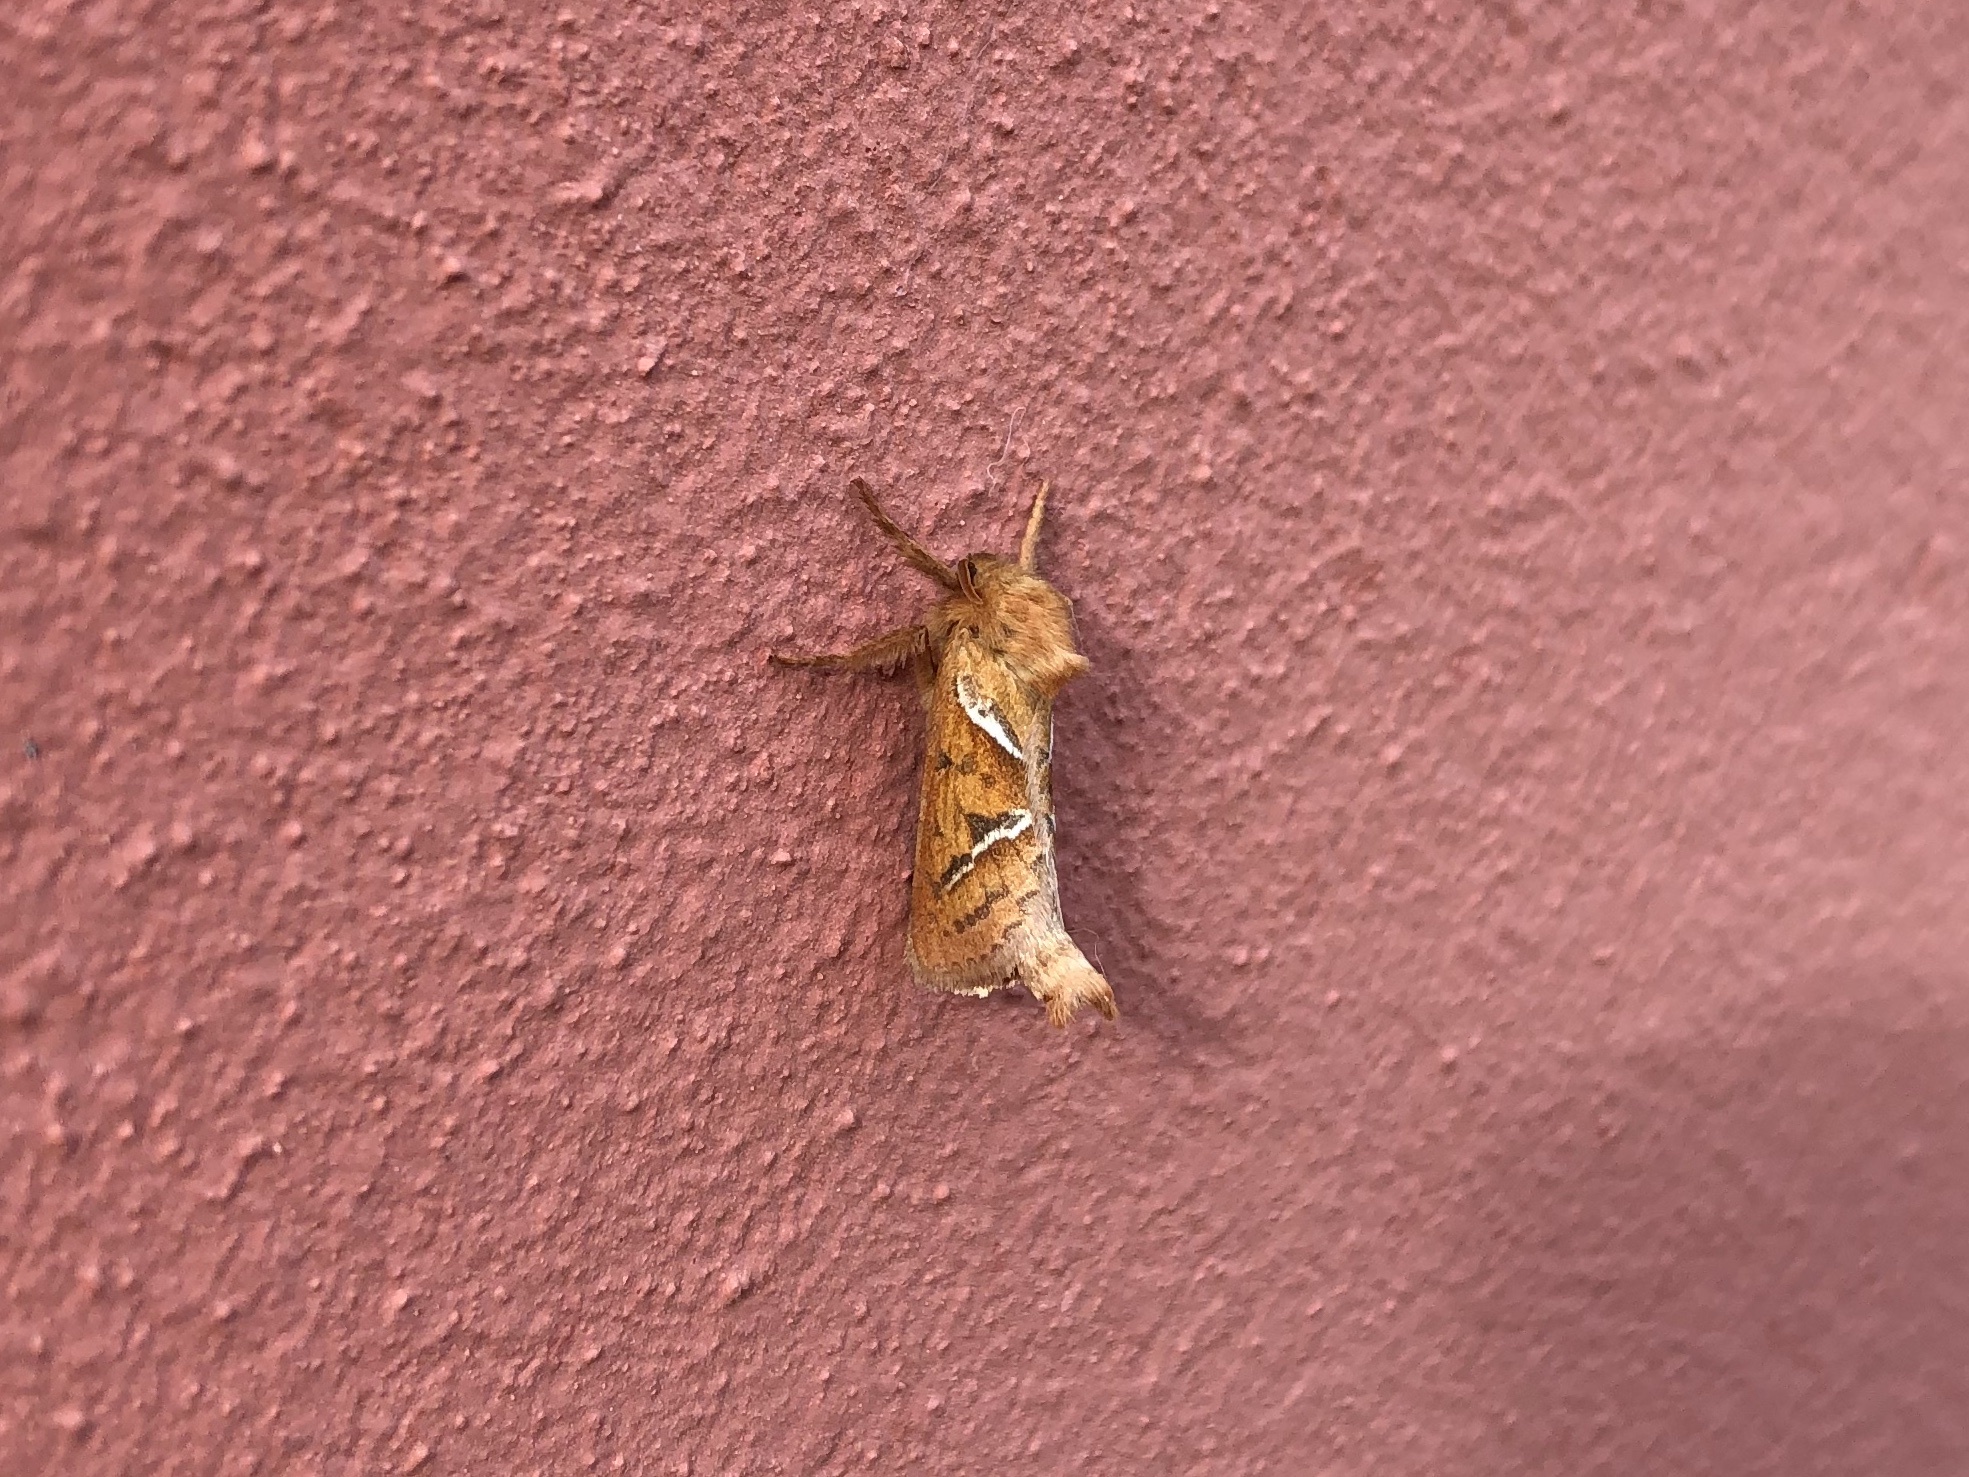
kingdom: Animalia
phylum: Arthropoda
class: Insecta
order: Lepidoptera
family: Hepialidae
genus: Triodia
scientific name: Triodia sylvina
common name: Orange swift
